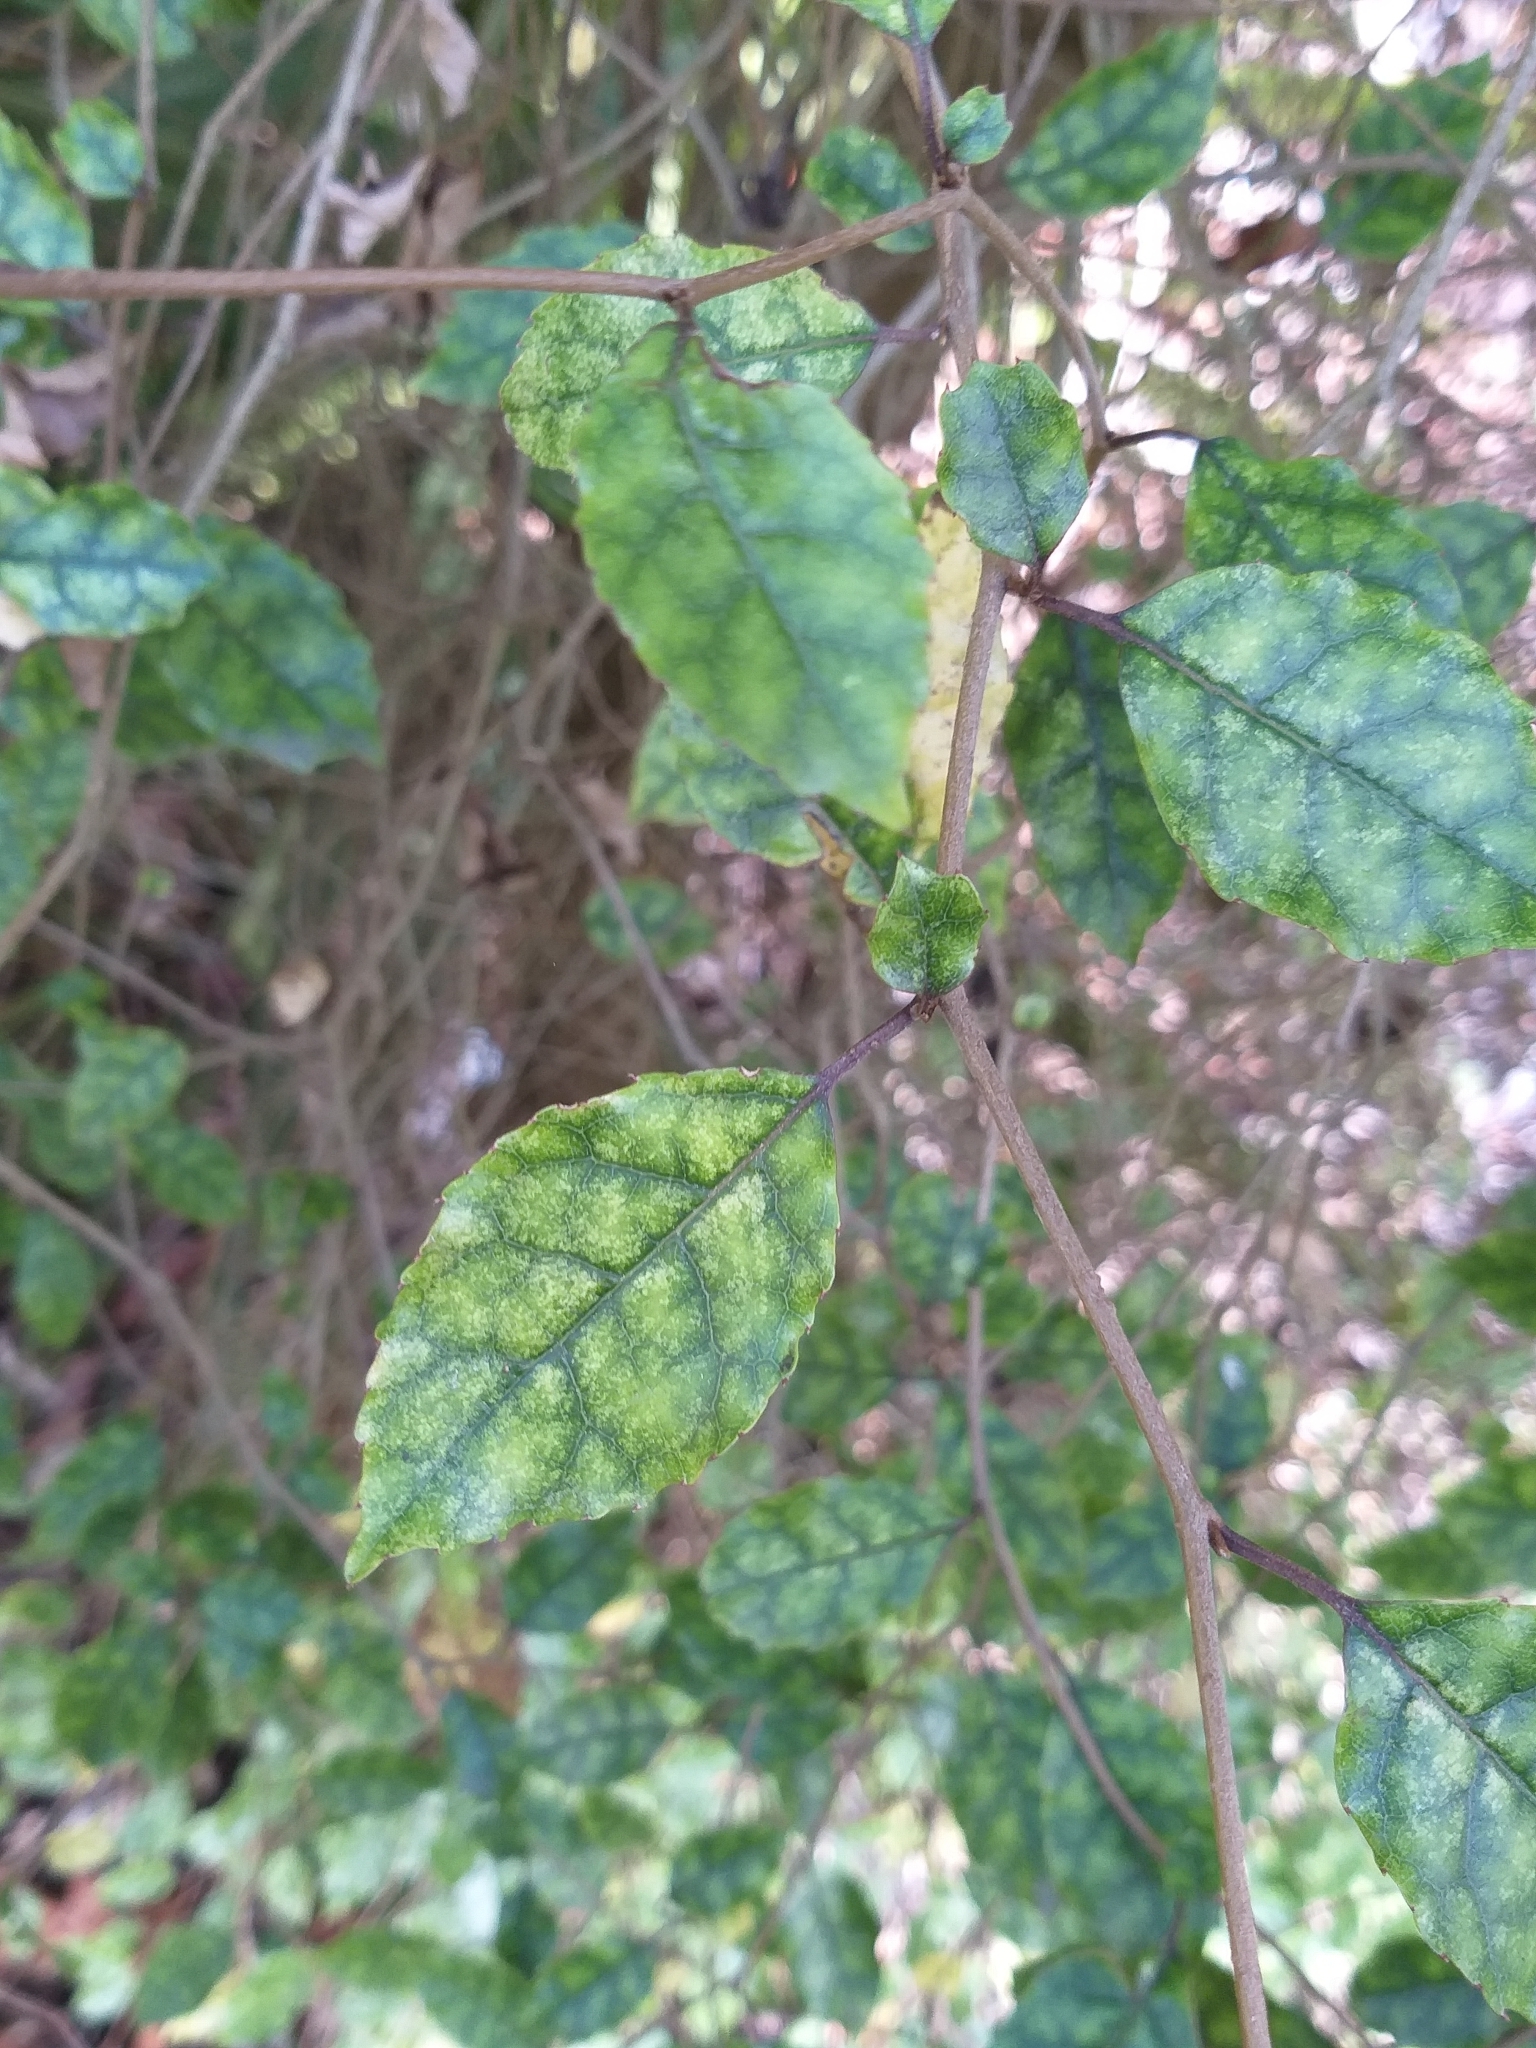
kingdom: Plantae
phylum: Tracheophyta
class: Magnoliopsida
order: Asterales
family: Rousseaceae
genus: Carpodetus
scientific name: Carpodetus serratus
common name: White mapau
